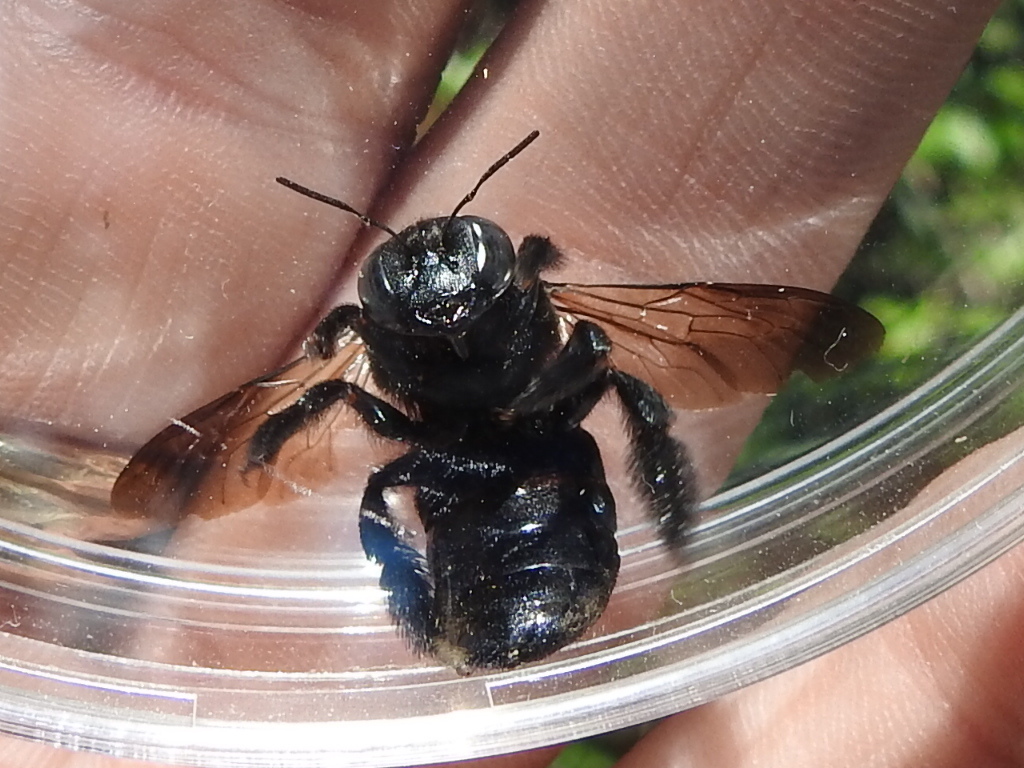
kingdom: Animalia
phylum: Arthropoda
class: Insecta
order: Hymenoptera
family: Apidae
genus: Xylocopa
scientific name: Xylocopa micans
